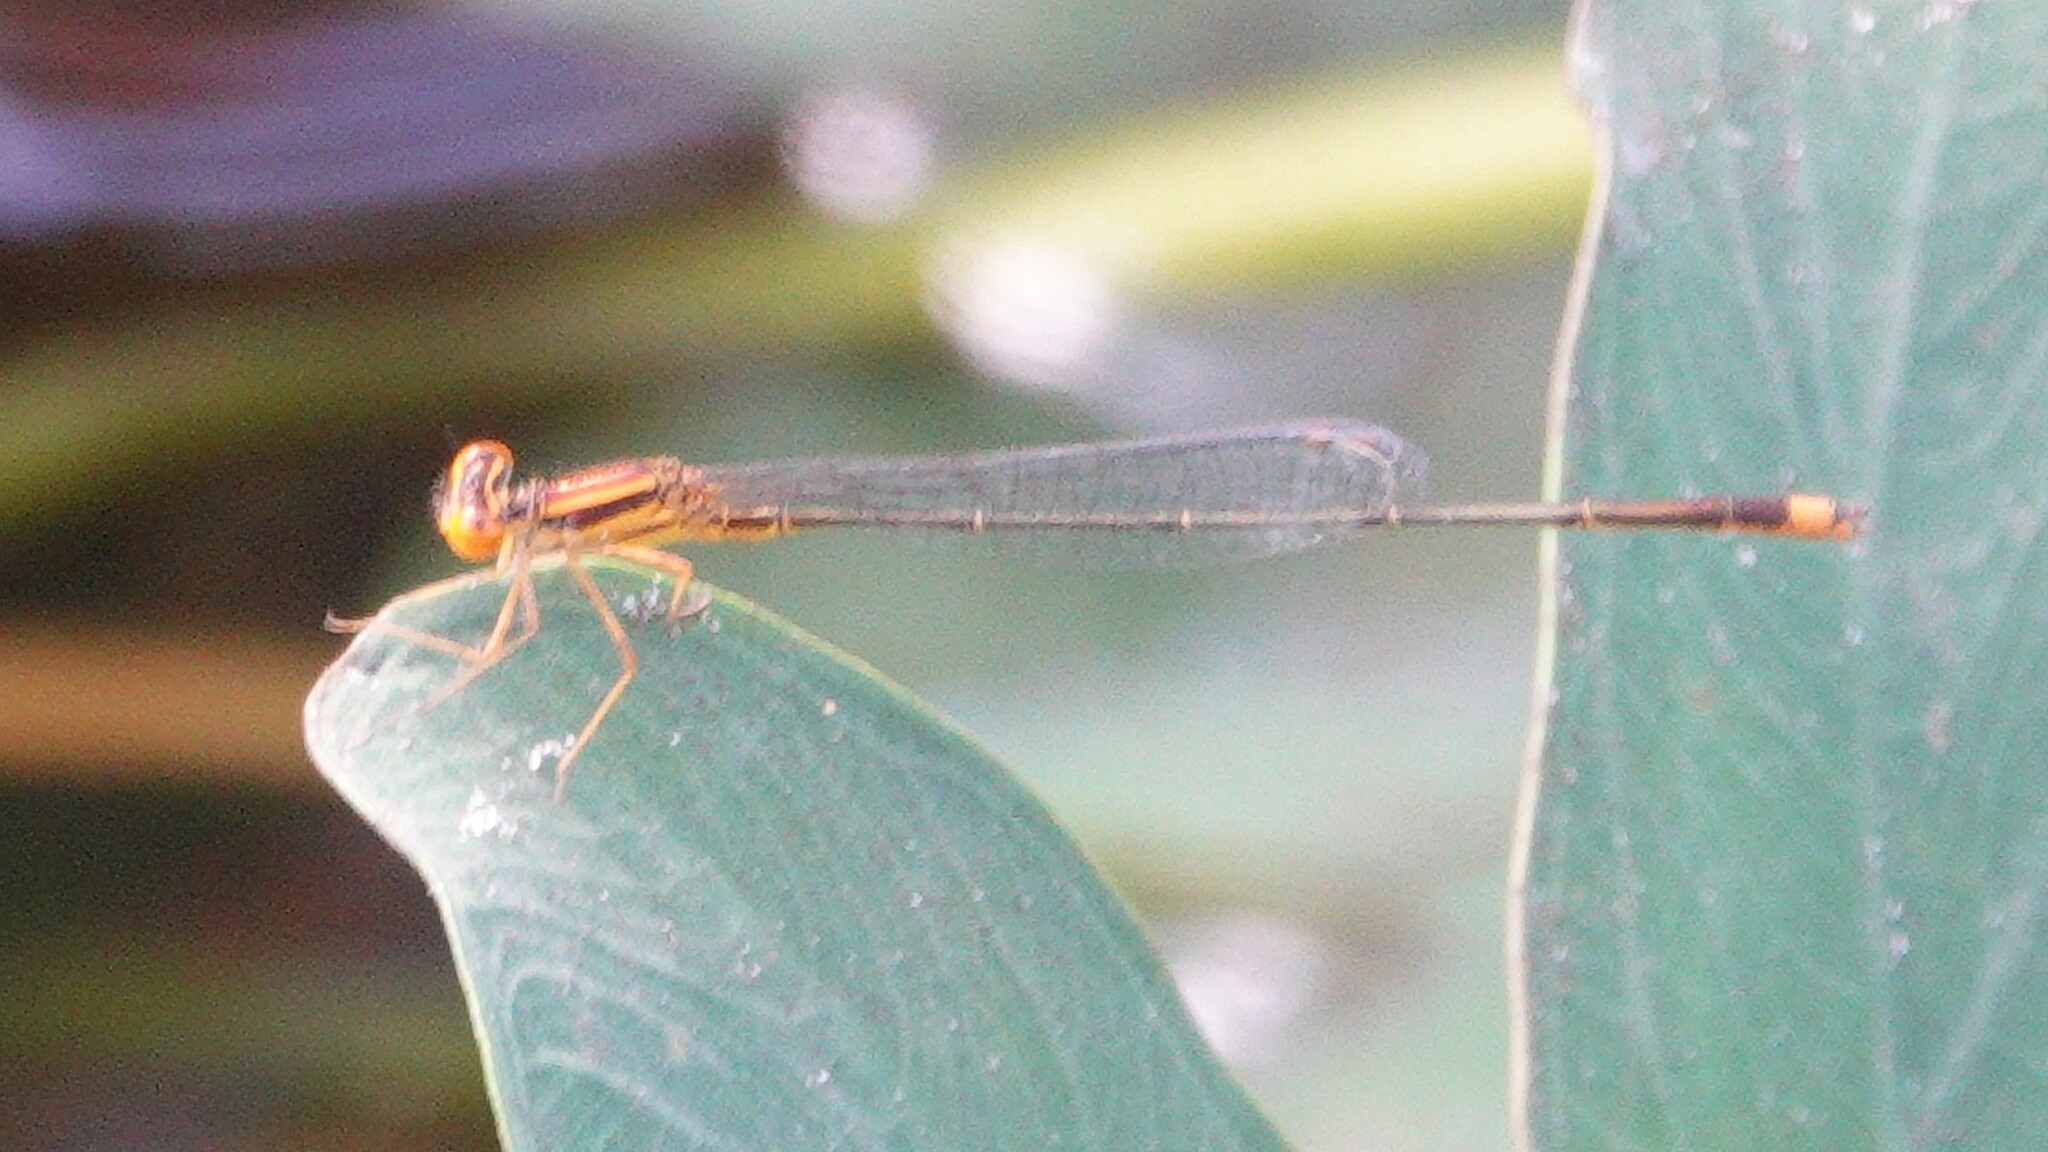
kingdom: Animalia
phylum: Arthropoda
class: Insecta
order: Odonata
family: Coenagrionidae
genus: Enallagma
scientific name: Enallagma pollutum
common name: Florida bluet
